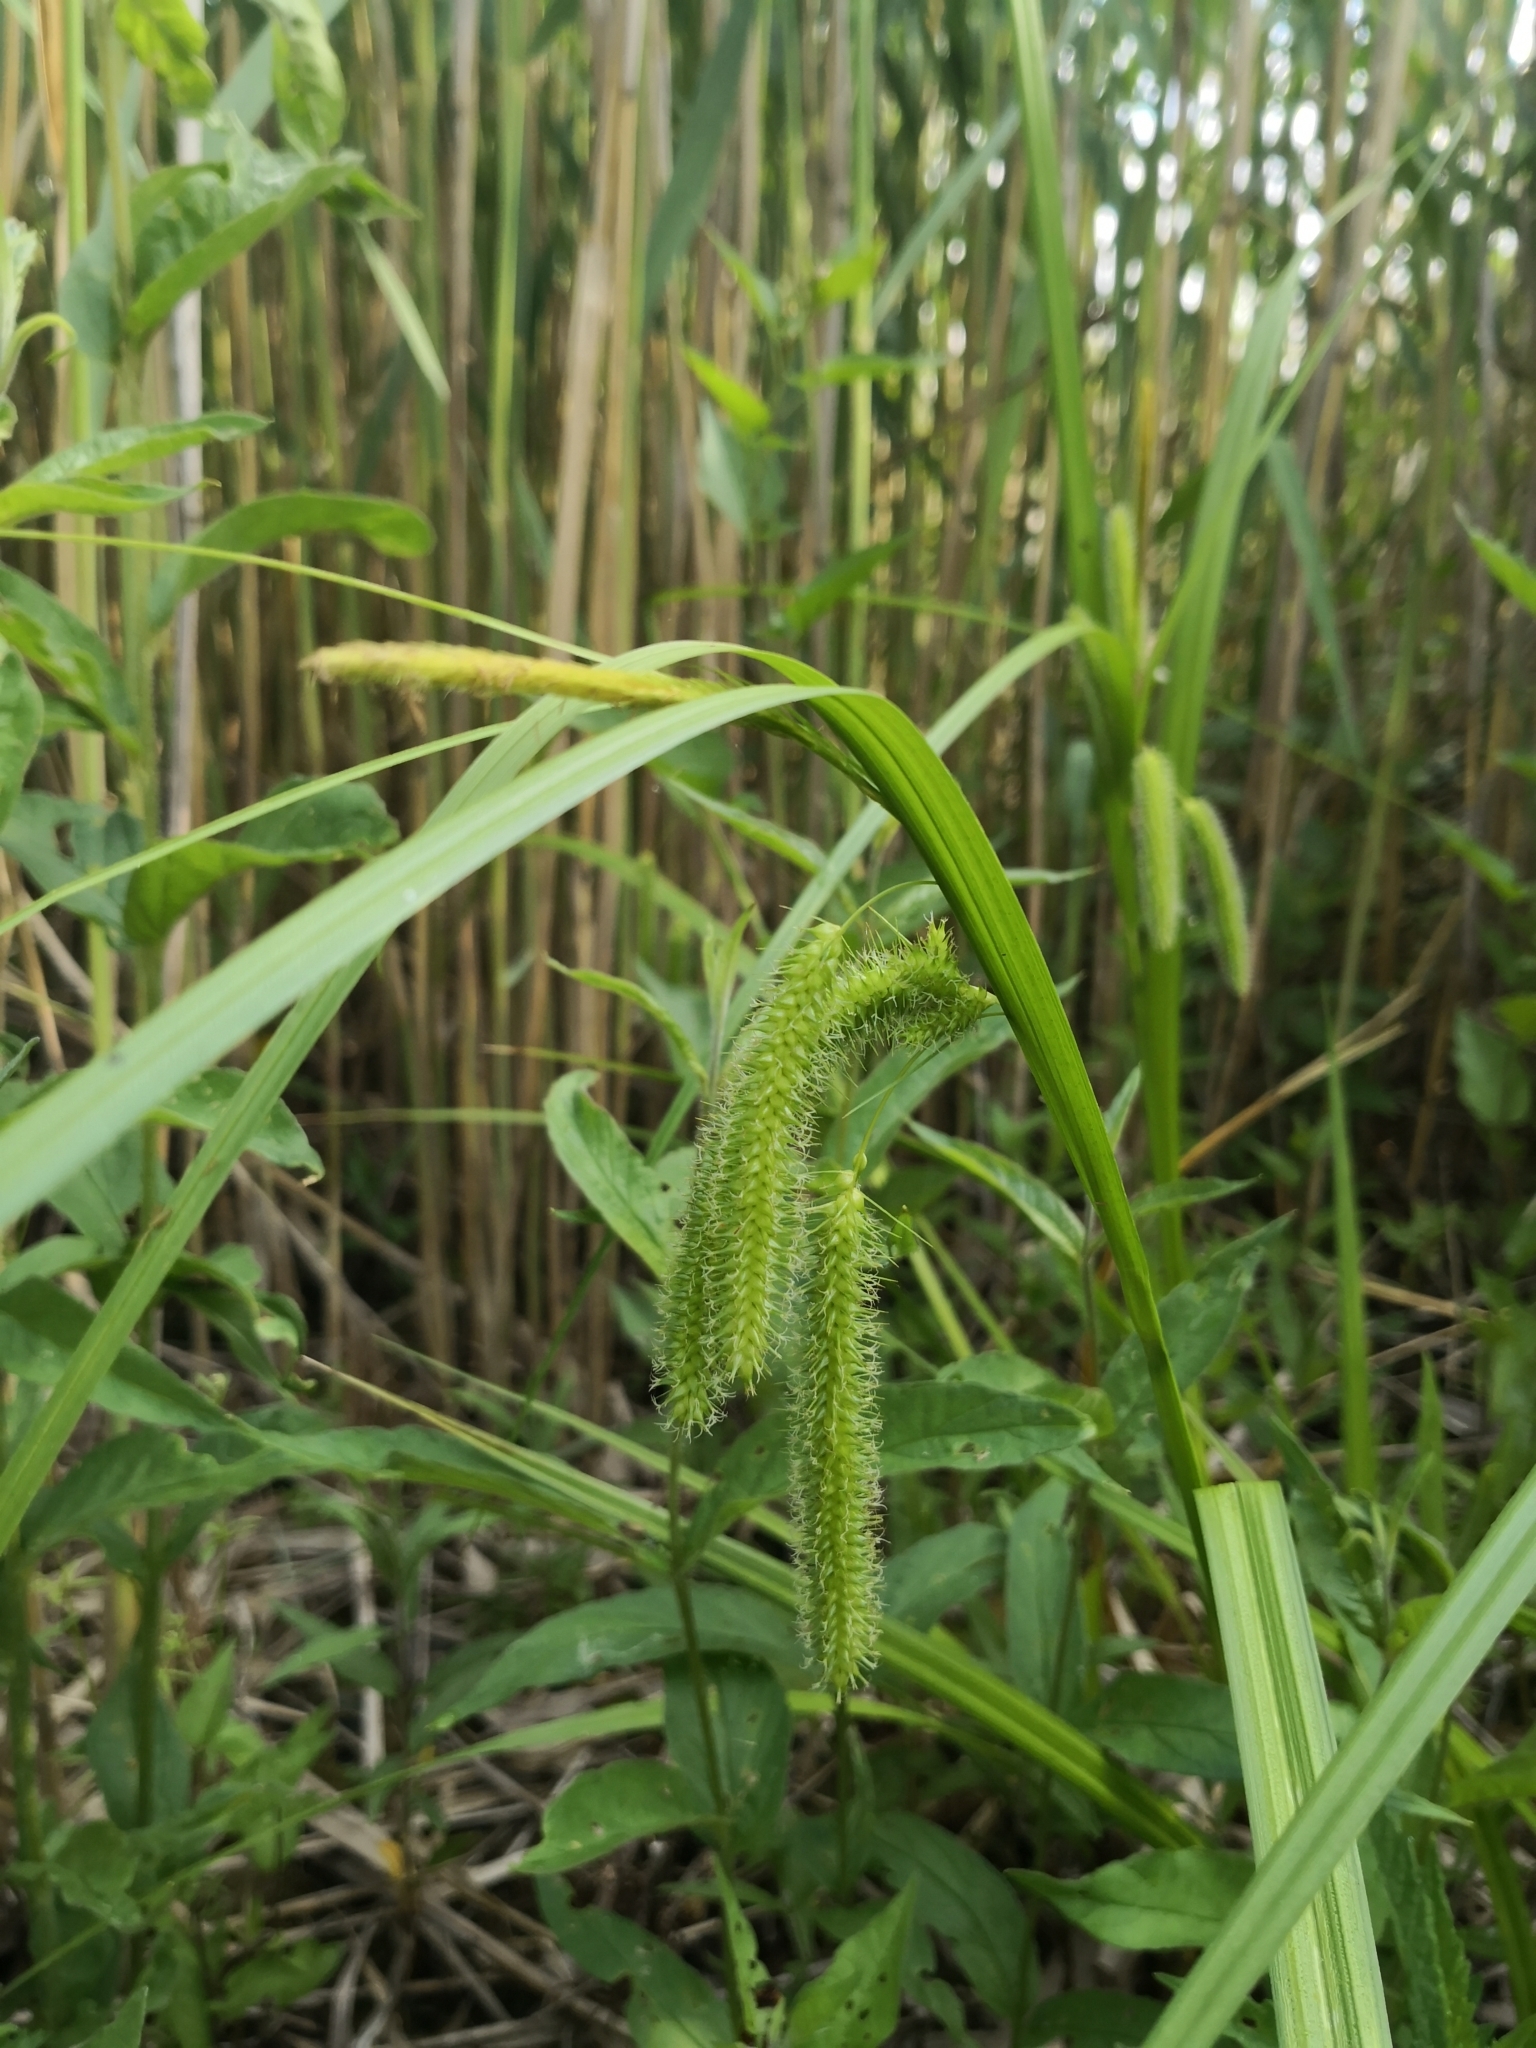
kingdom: Plantae
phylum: Tracheophyta
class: Liliopsida
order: Poales
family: Cyperaceae
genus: Carex
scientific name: Carex pseudocyperus
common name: Cyperus sedge
